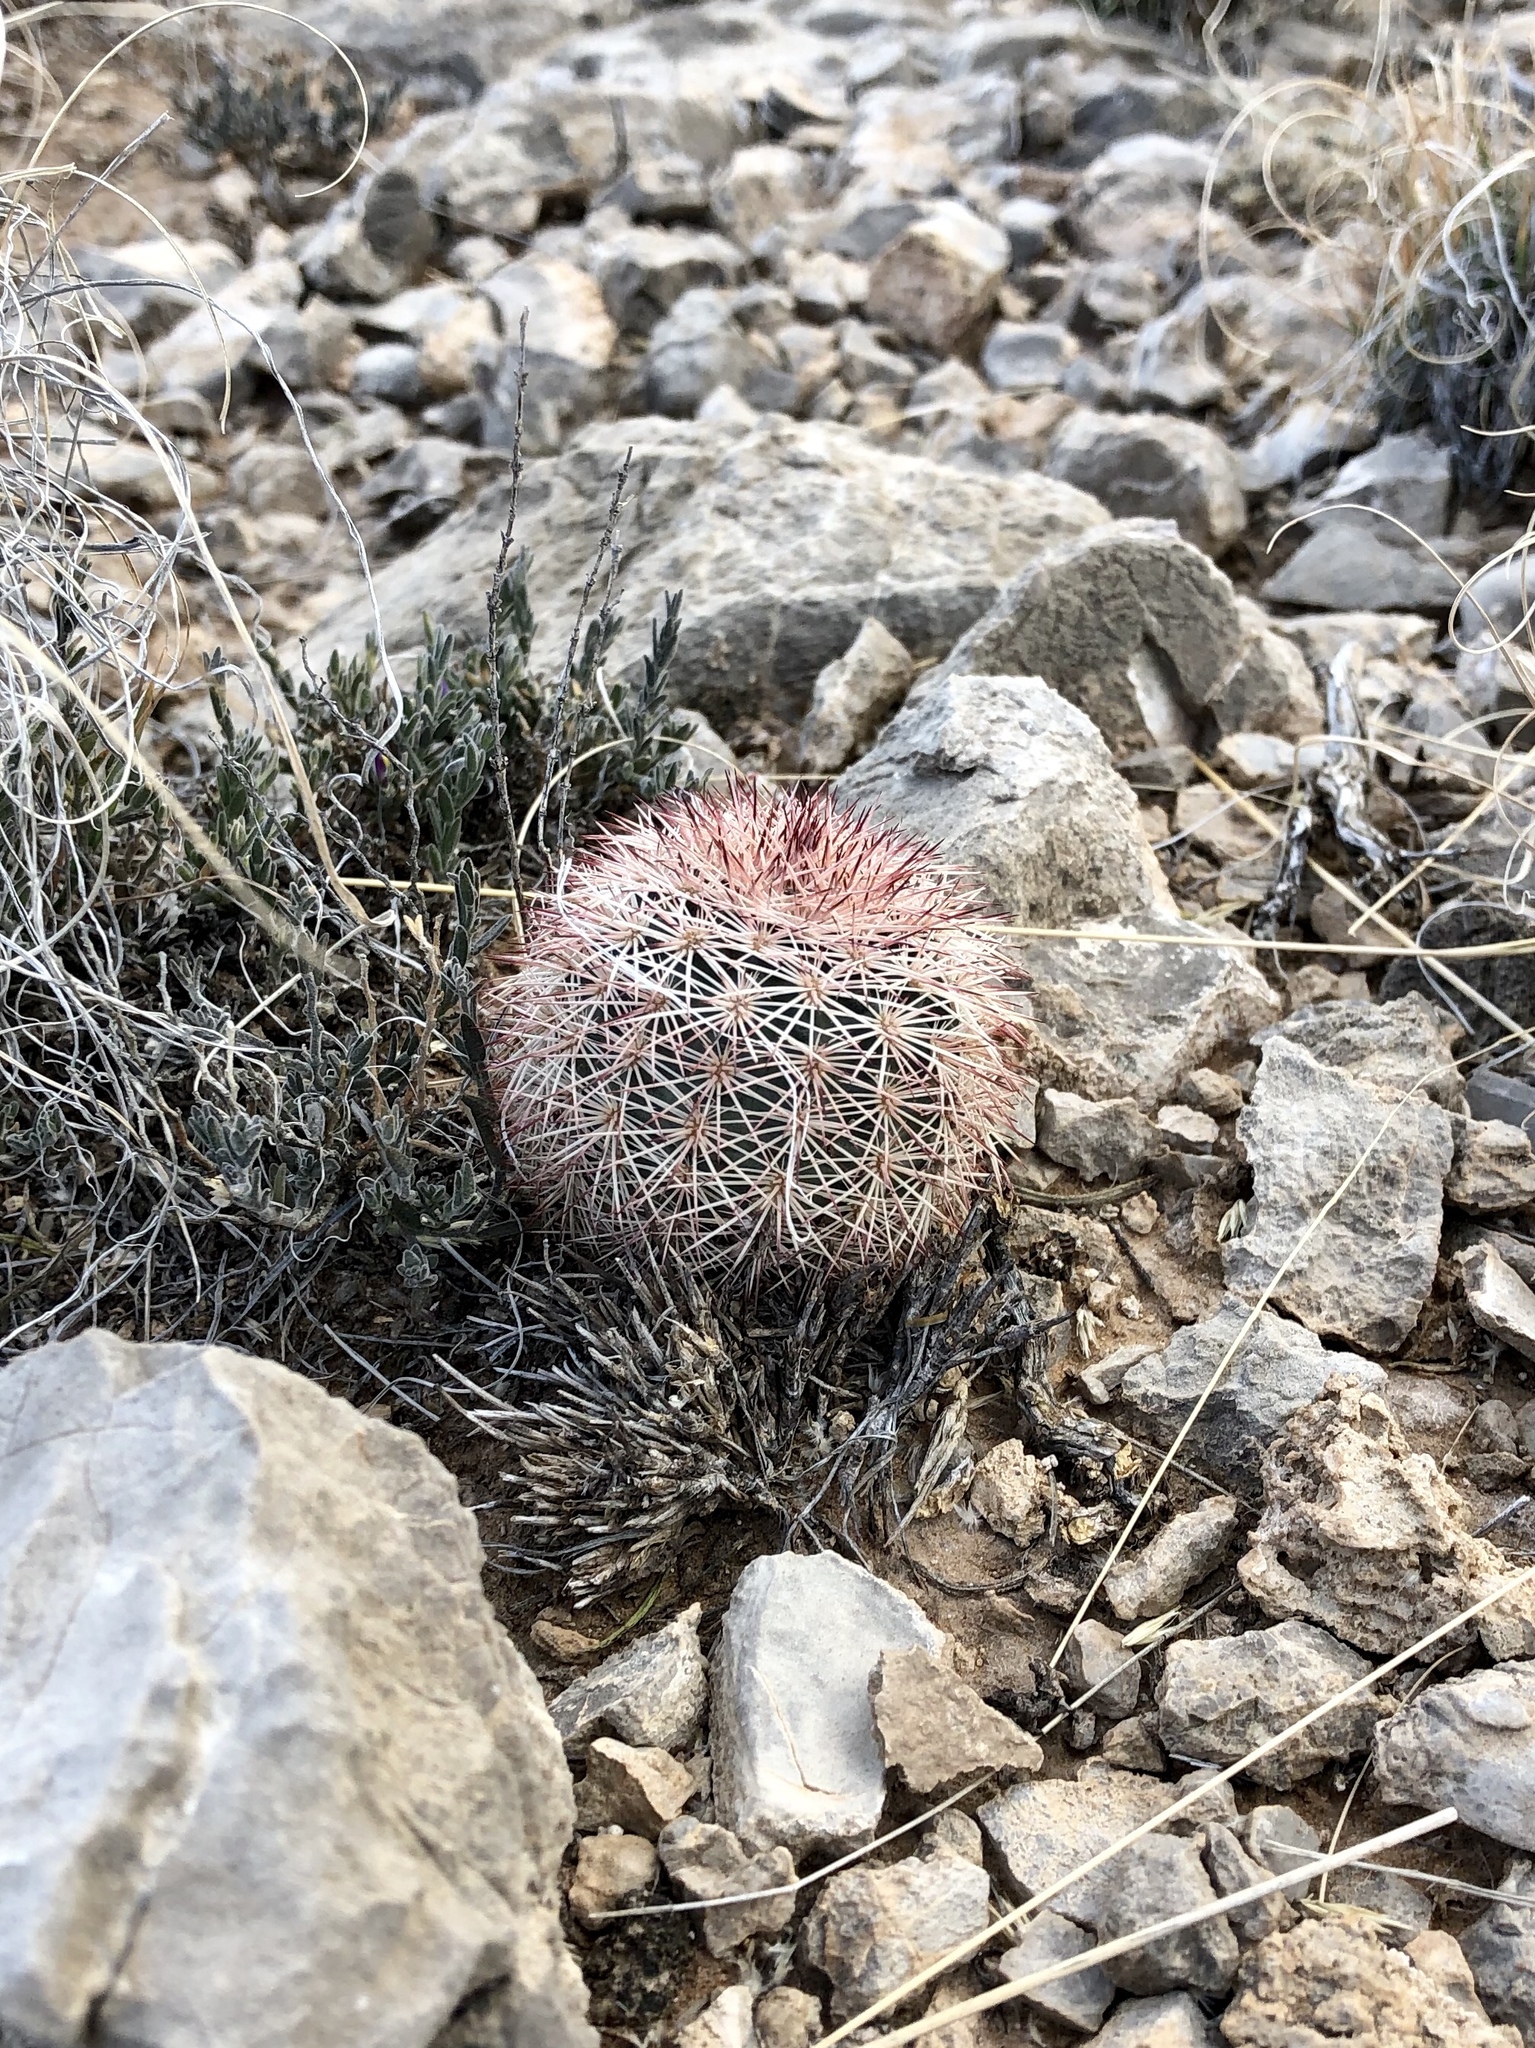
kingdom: Plantae
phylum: Tracheophyta
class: Magnoliopsida
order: Caryophyllales
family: Cactaceae
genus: Echinocereus
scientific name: Echinocereus dasyacanthus
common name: Spiny hedgehog cactus
